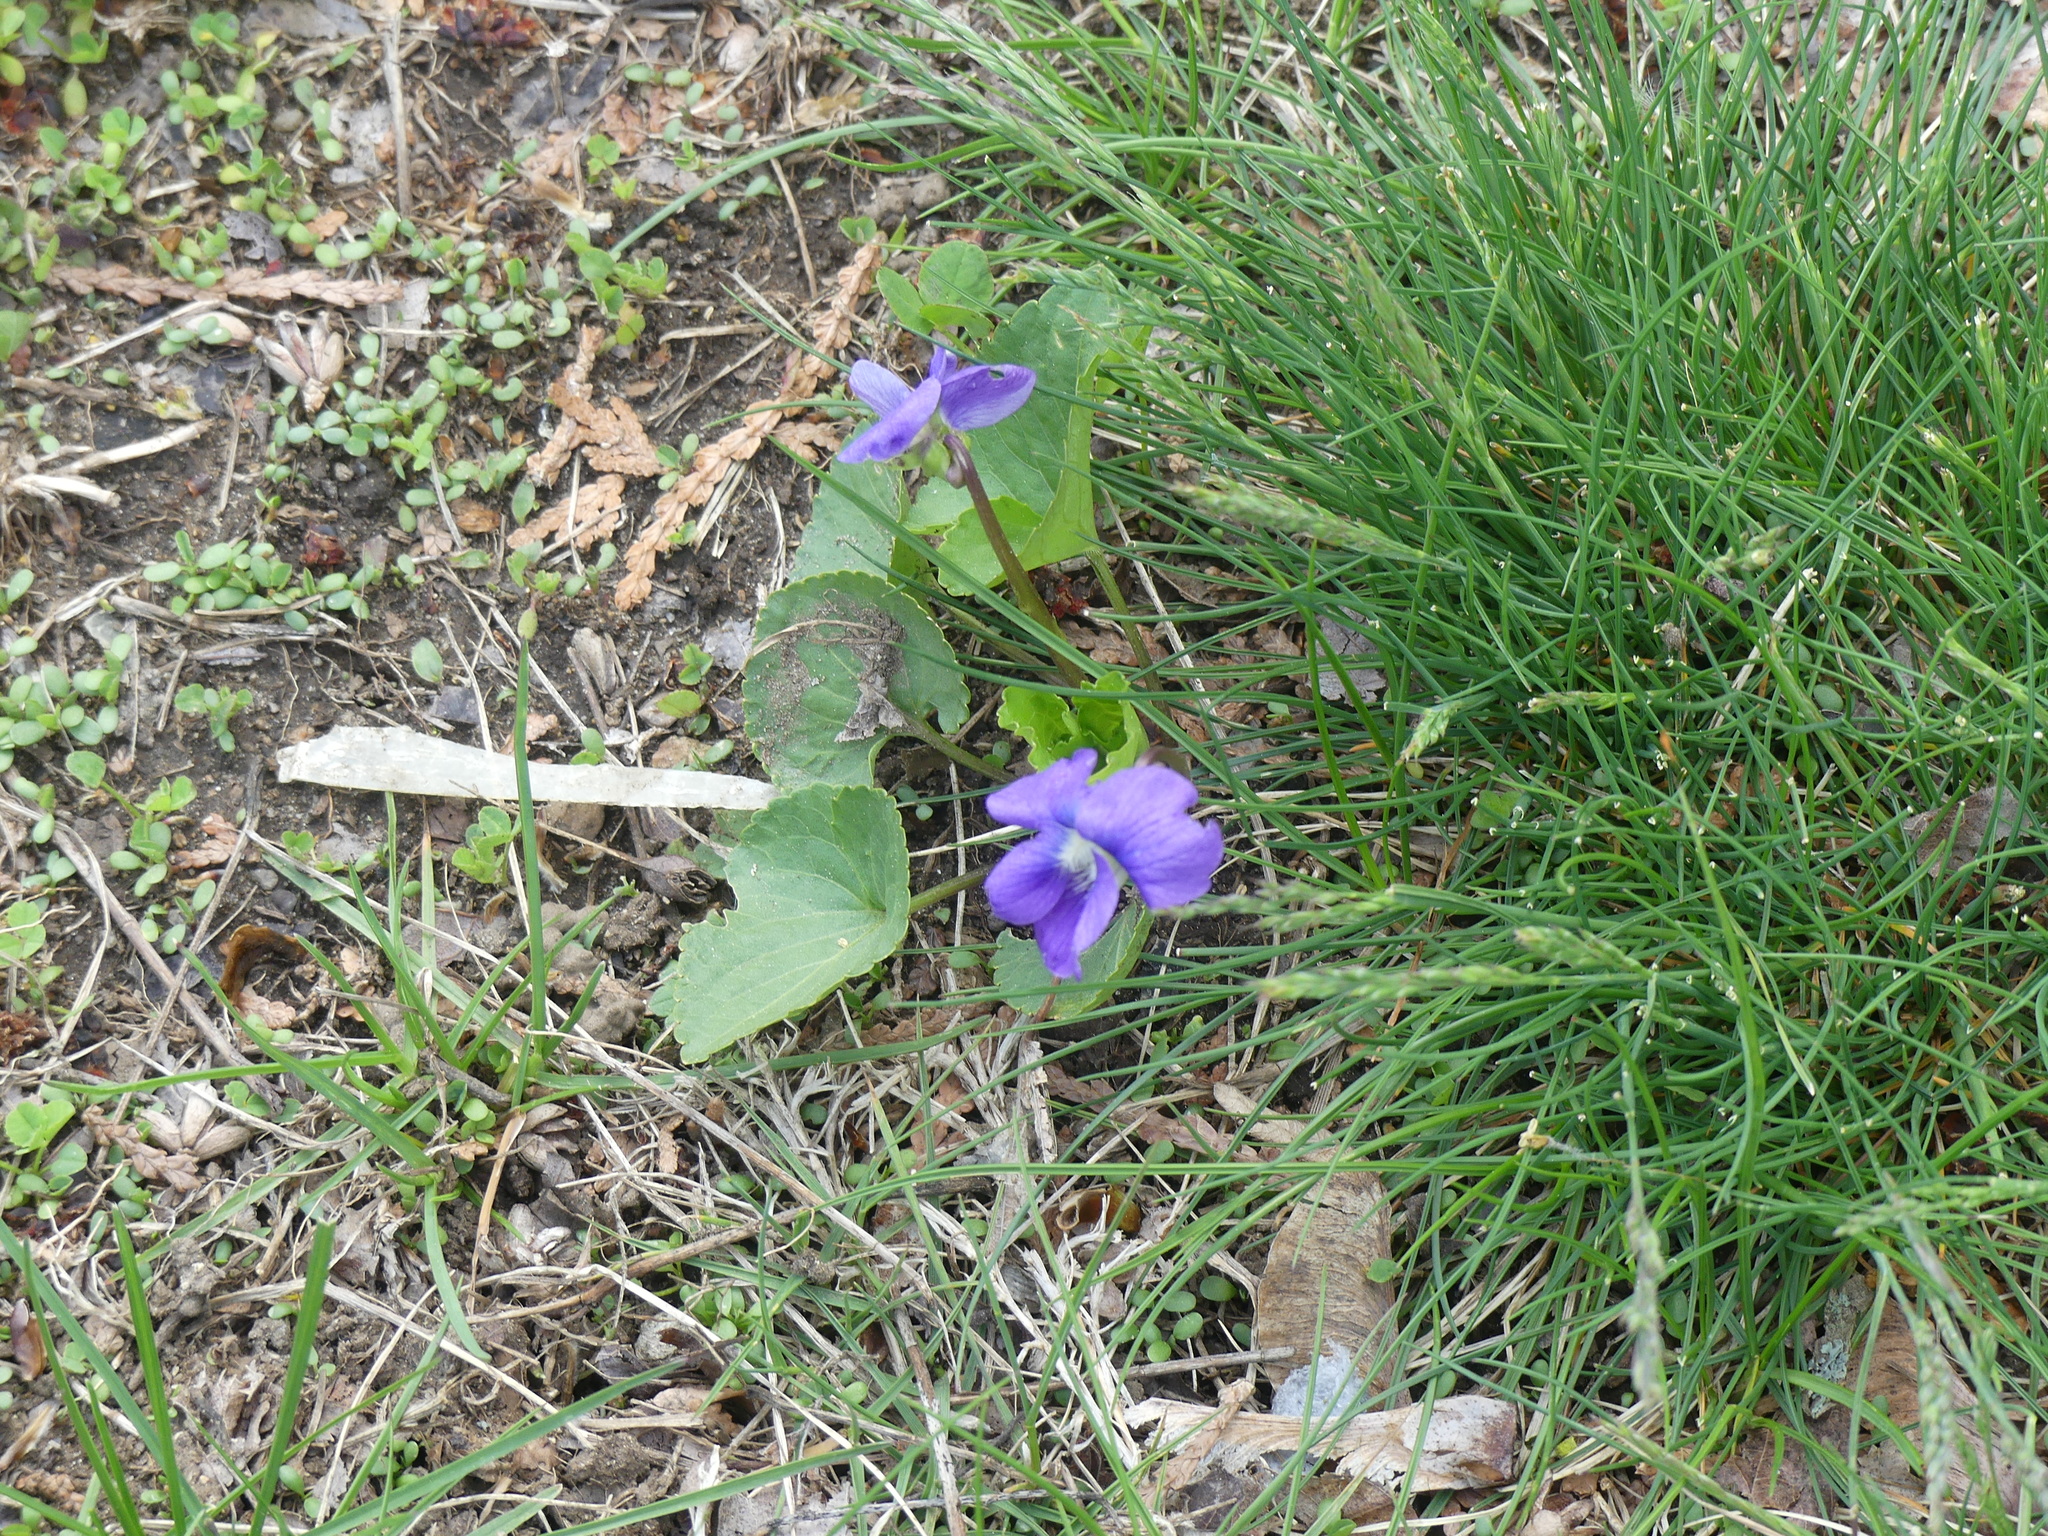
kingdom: Plantae
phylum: Tracheophyta
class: Magnoliopsida
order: Malpighiales
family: Violaceae
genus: Viola
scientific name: Viola sororia
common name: Dooryard violet
